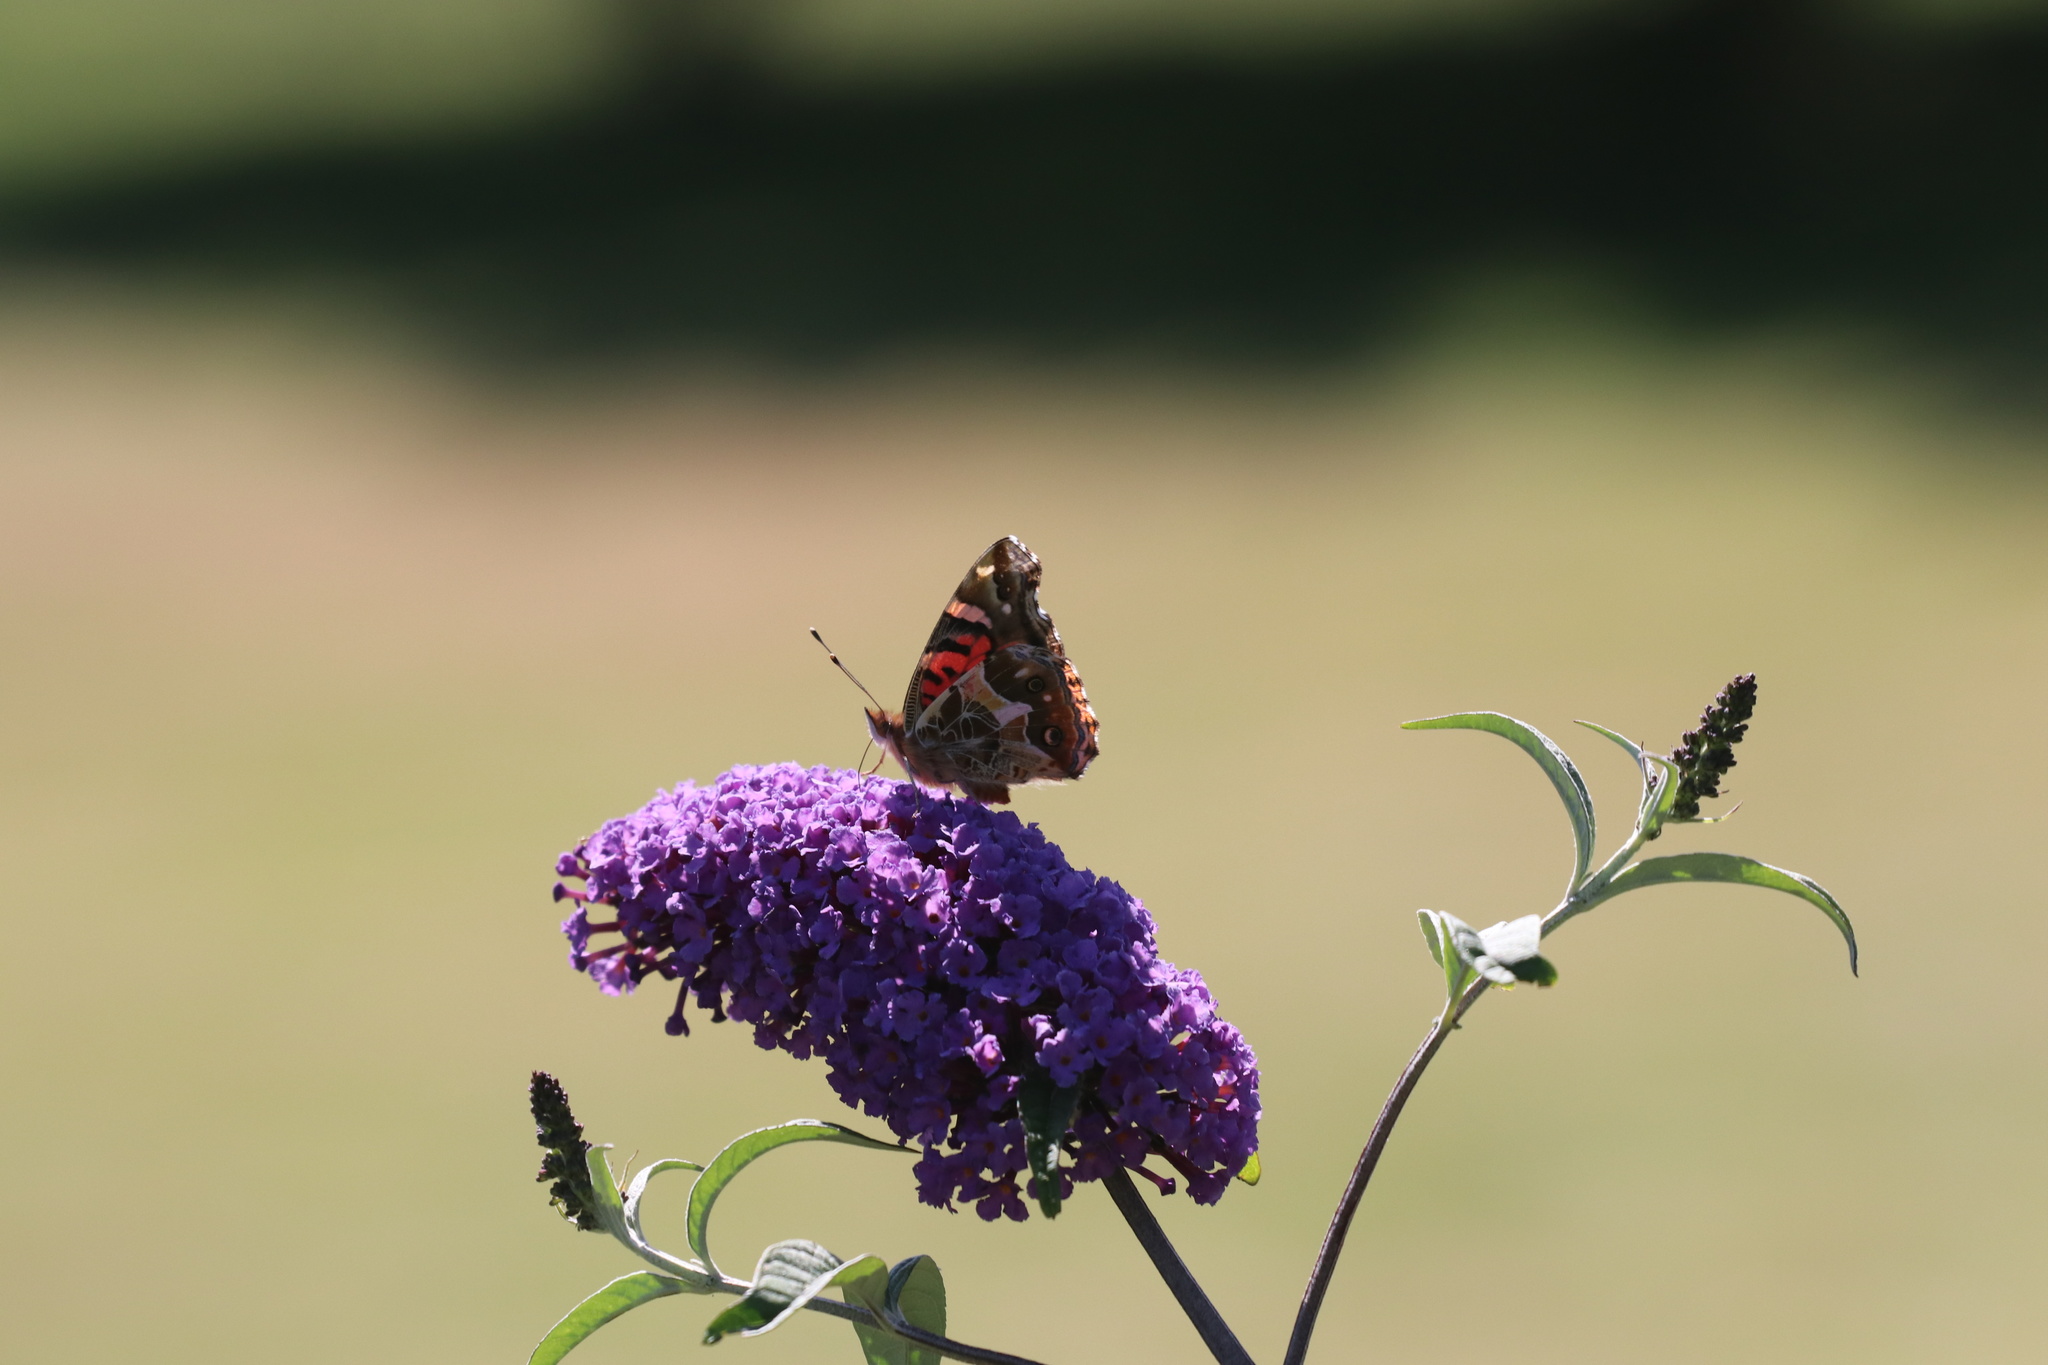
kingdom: Animalia
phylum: Arthropoda
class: Insecta
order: Lepidoptera
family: Nymphalidae
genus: Vanessa
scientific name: Vanessa terpsichore
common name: Chilean lady
